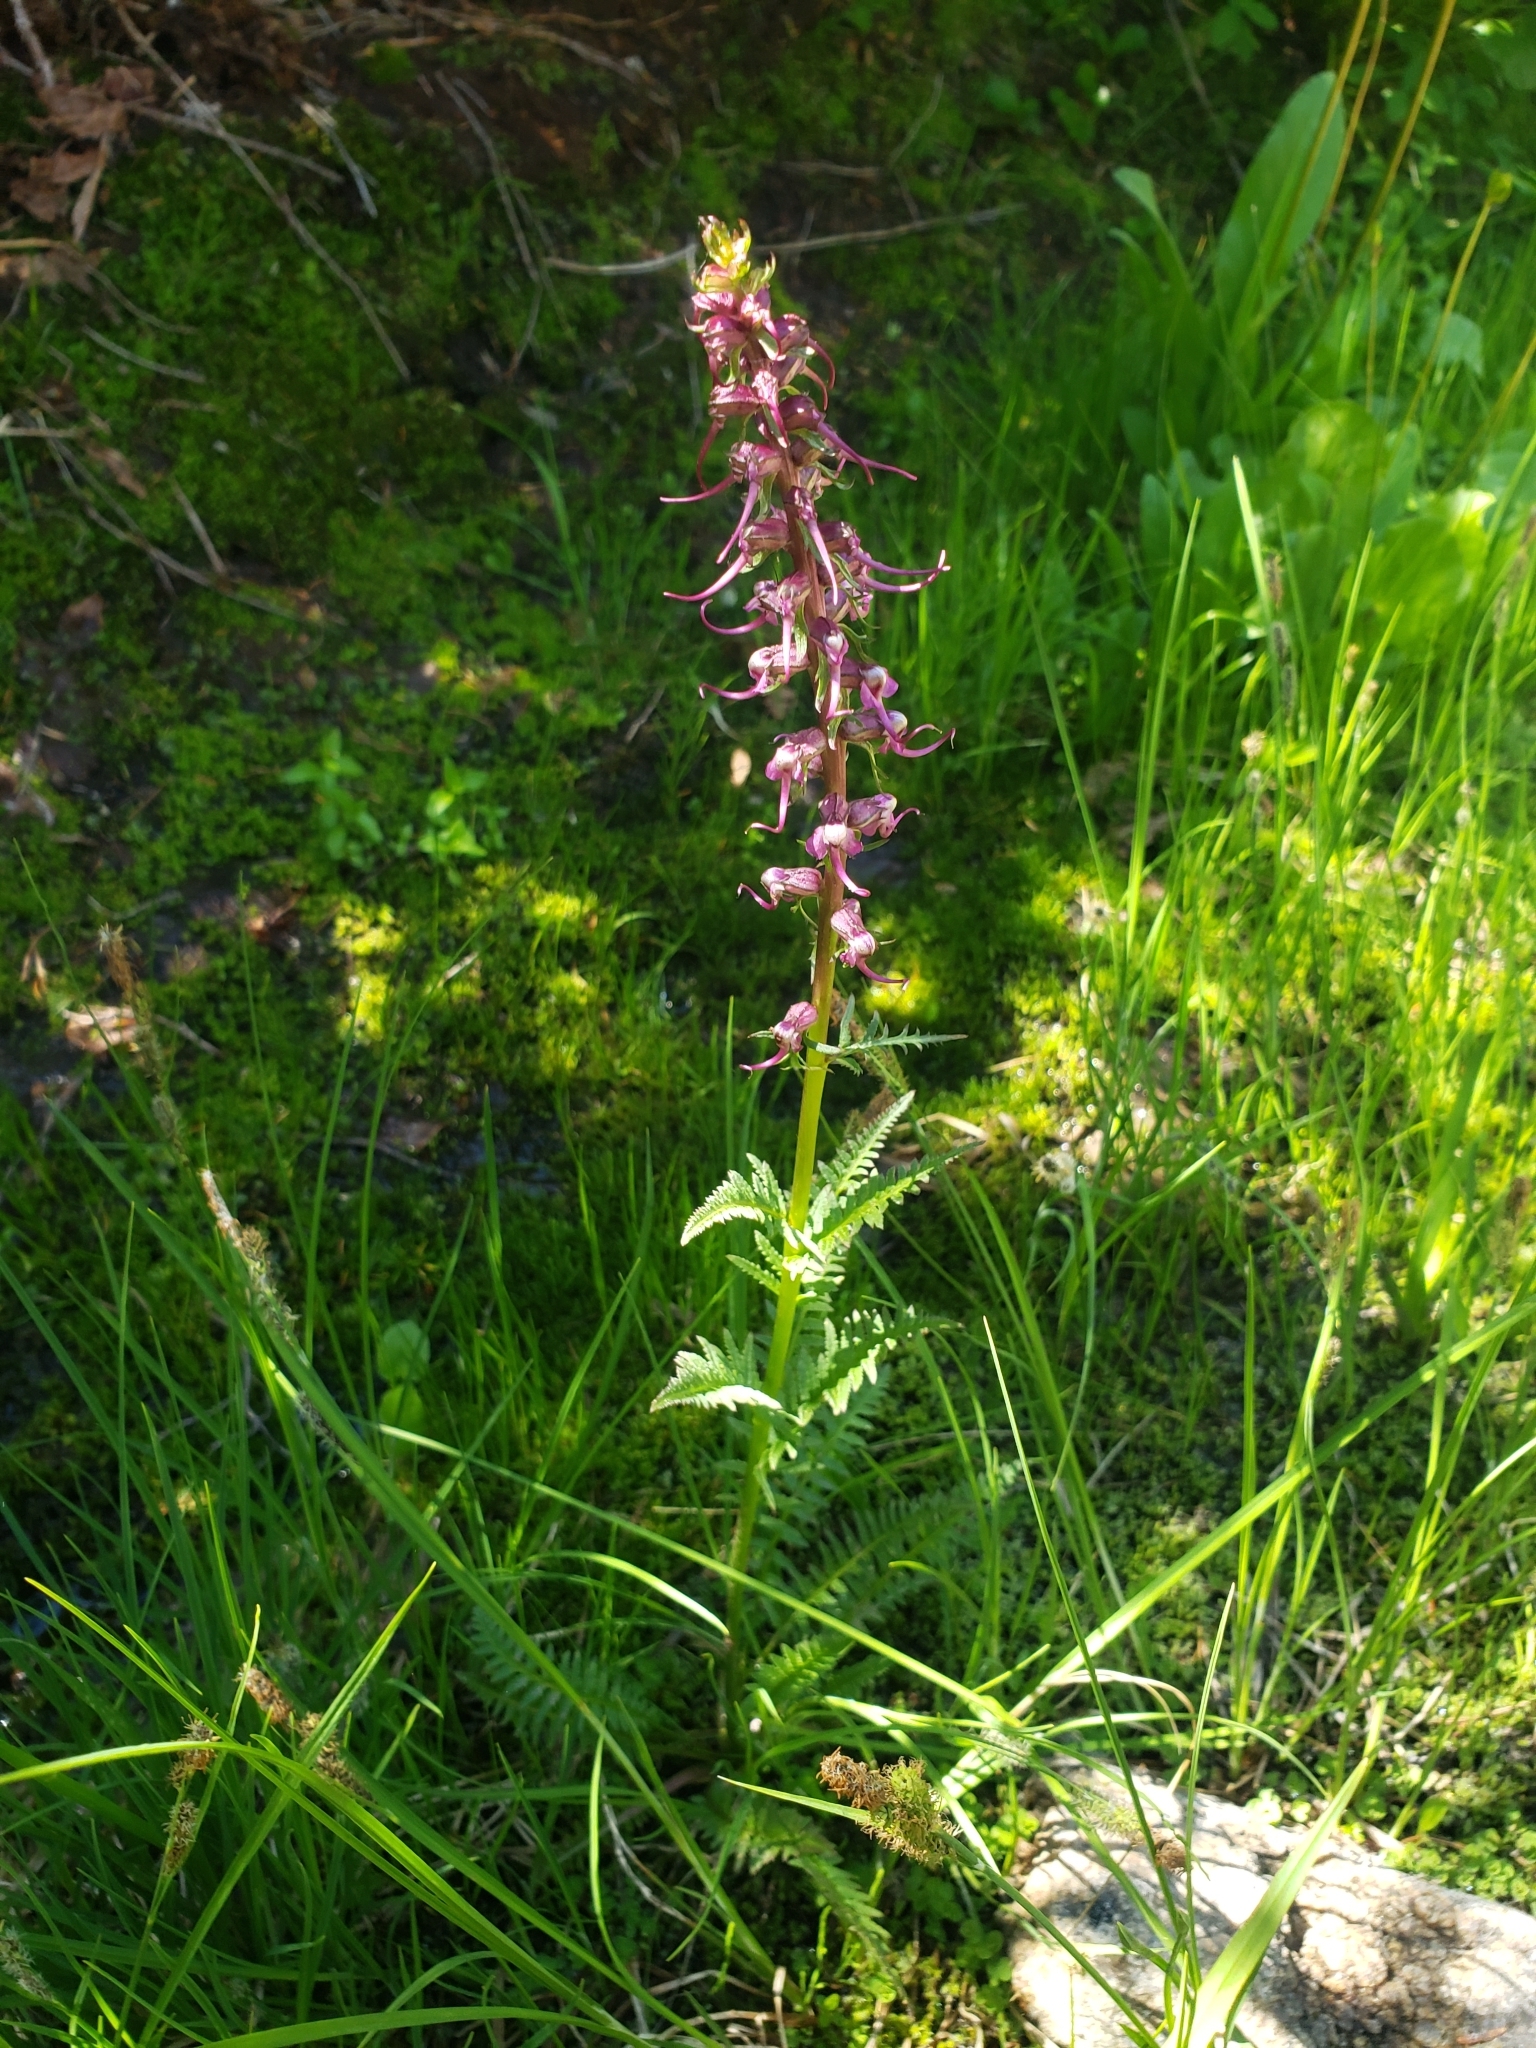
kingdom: Plantae
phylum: Tracheophyta
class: Magnoliopsida
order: Lamiales
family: Orobanchaceae
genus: Pedicularis
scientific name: Pedicularis groenlandica
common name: Elephant's-head
